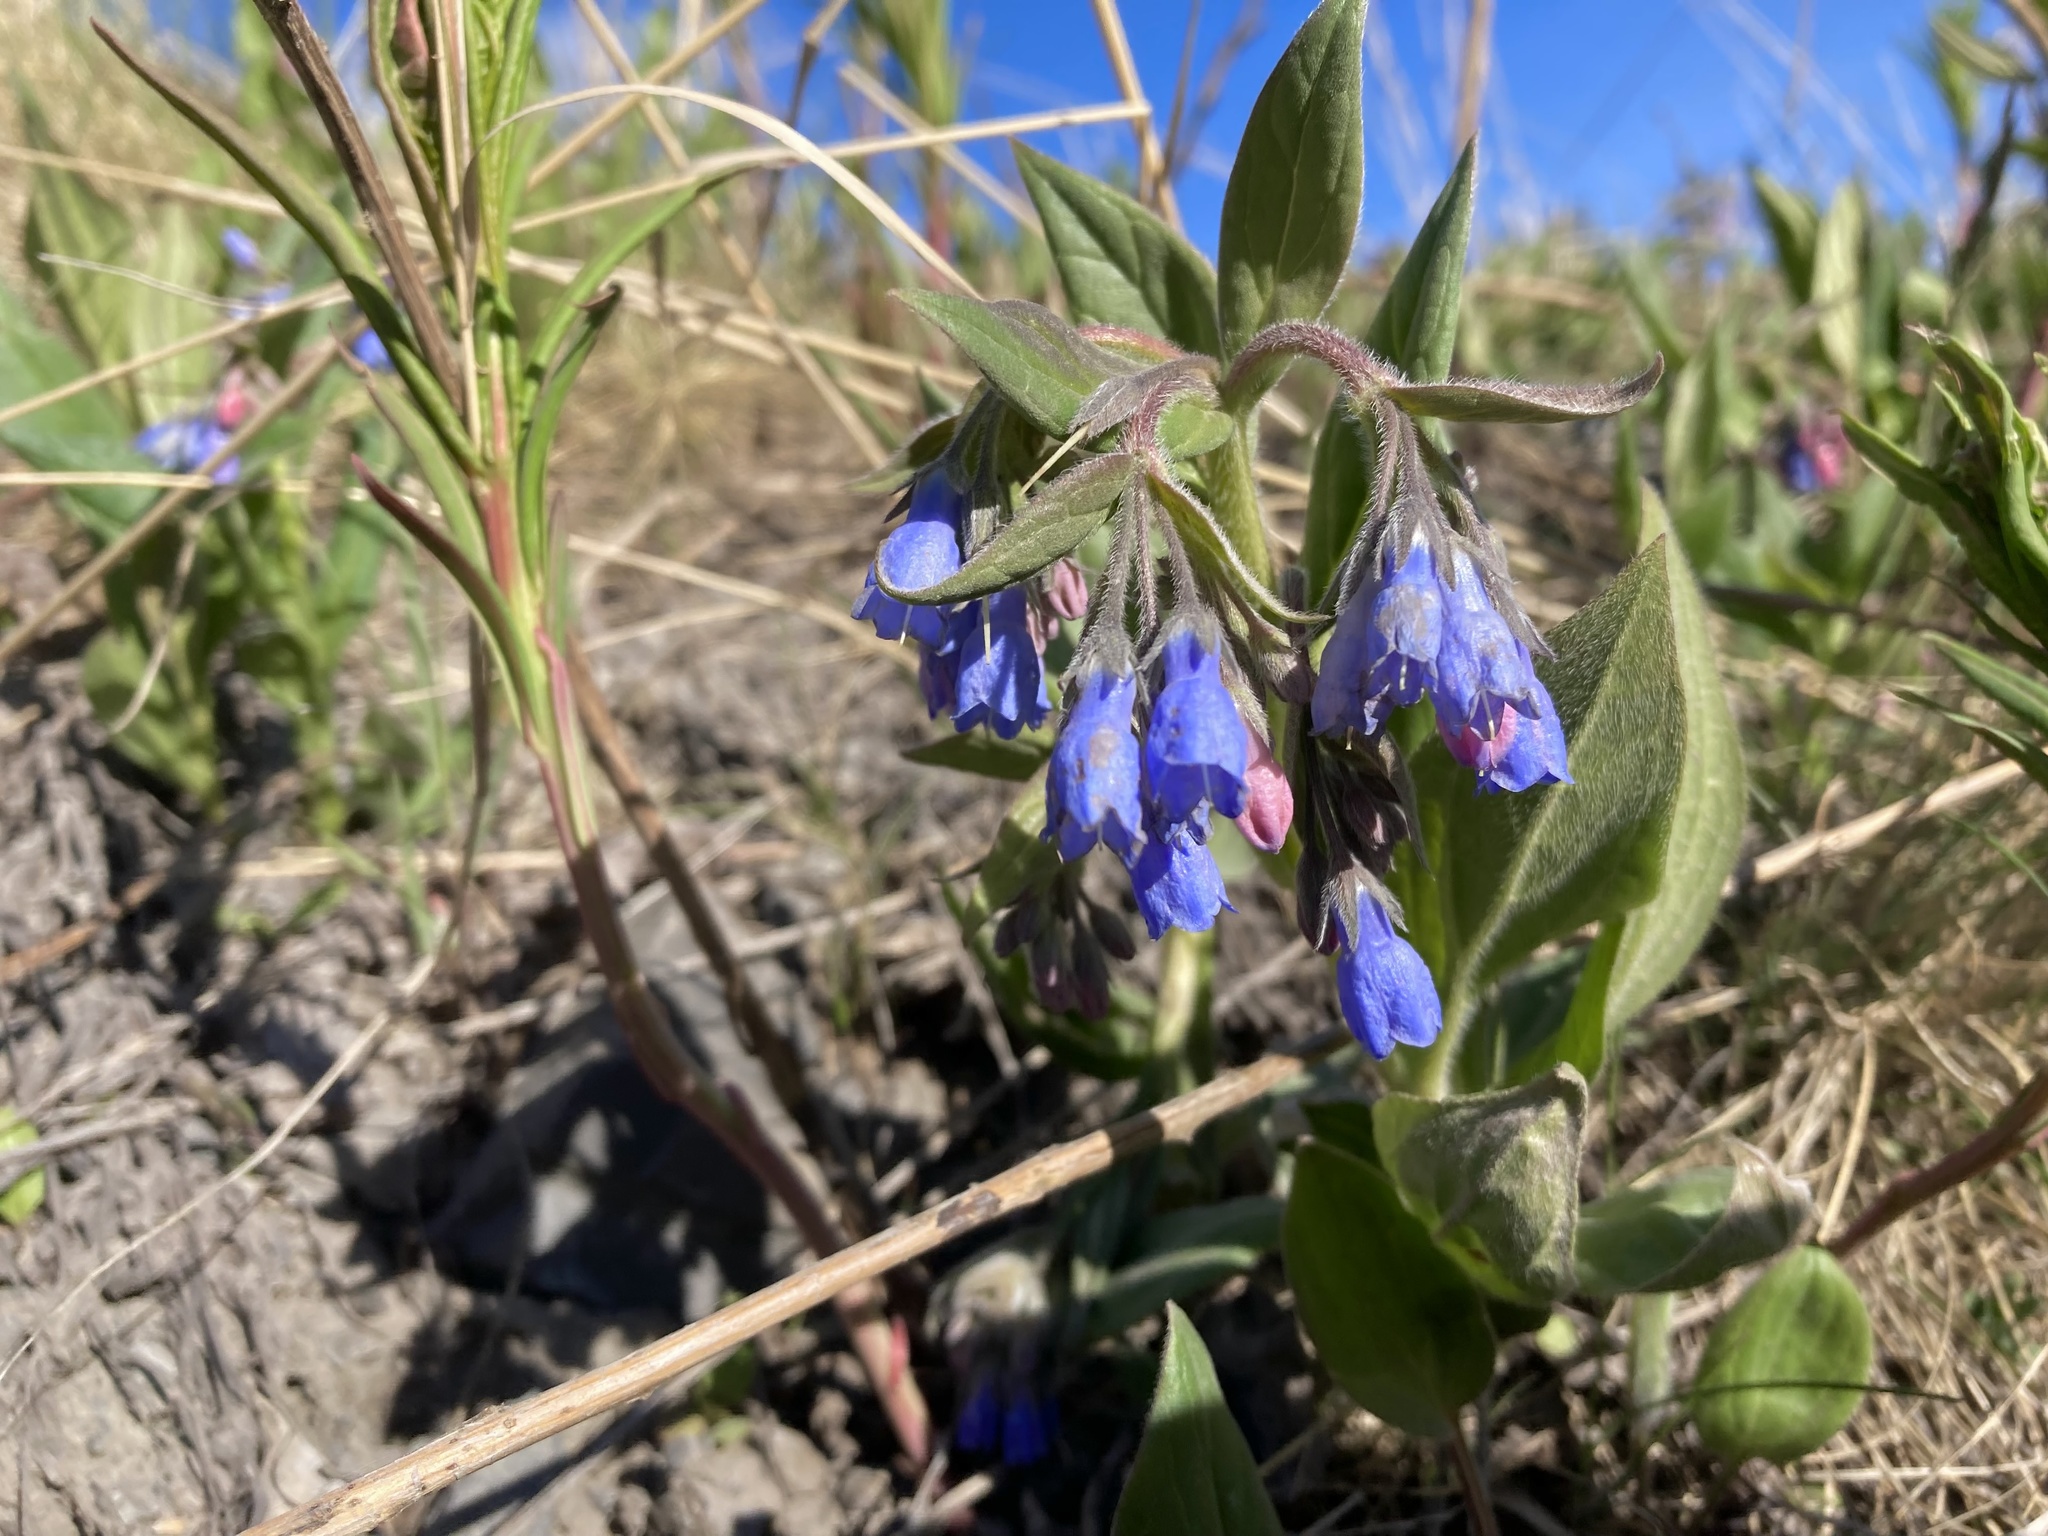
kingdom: Plantae
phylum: Tracheophyta
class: Magnoliopsida
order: Boraginales
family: Boraginaceae
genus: Mertensia
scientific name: Mertensia paniculata
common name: Panicled bluebells
